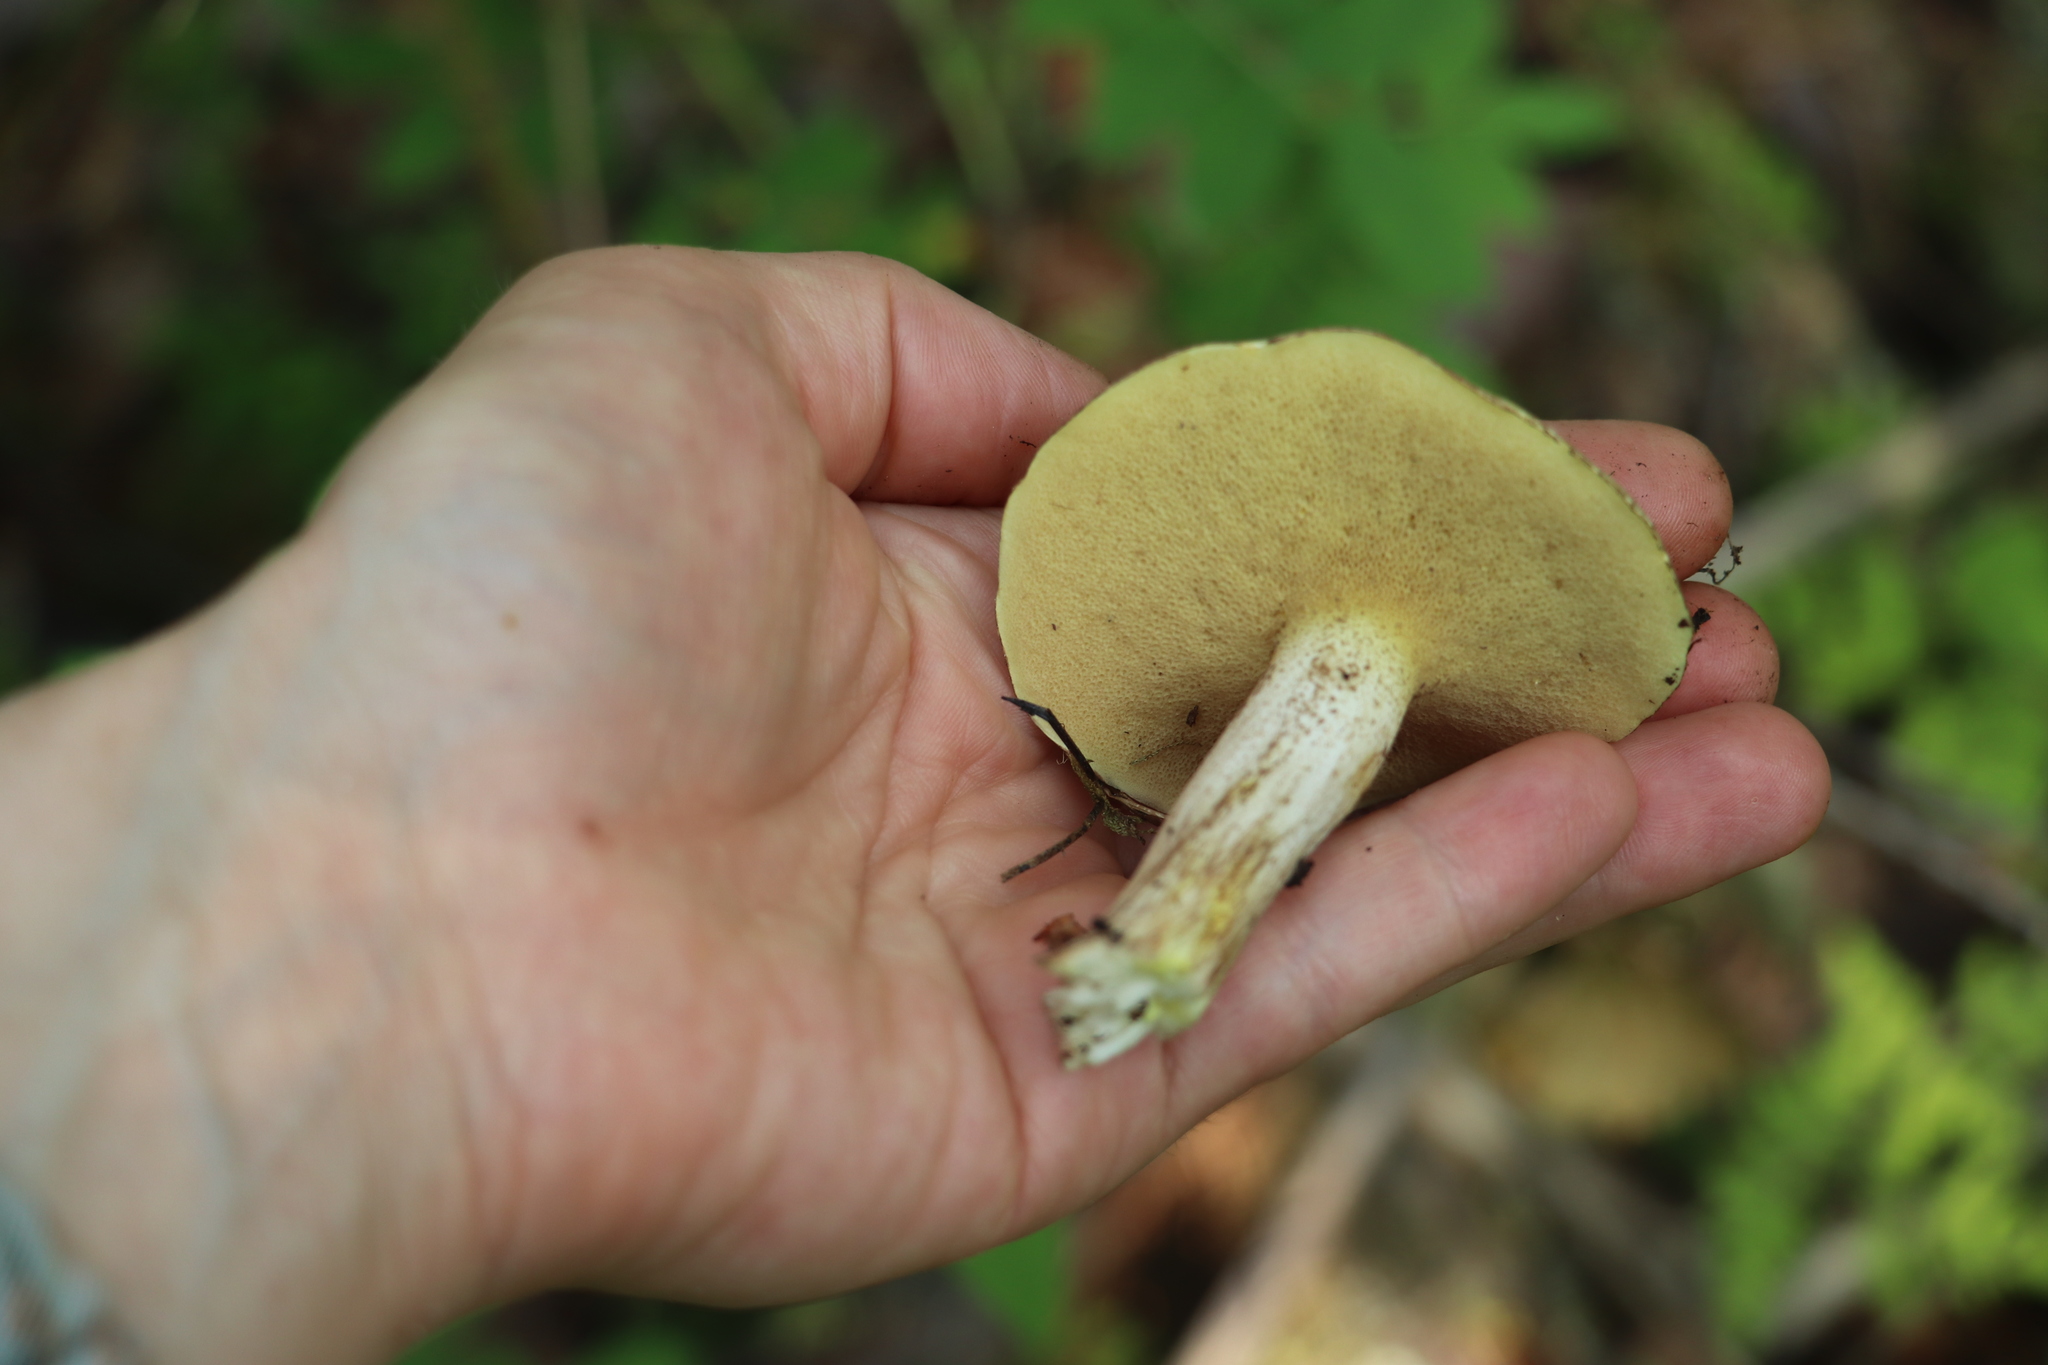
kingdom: Fungi
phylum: Basidiomycota
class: Agaricomycetes
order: Boletales
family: Suillaceae
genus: Suillus
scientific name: Suillus placidus
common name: Slippery white bolete
